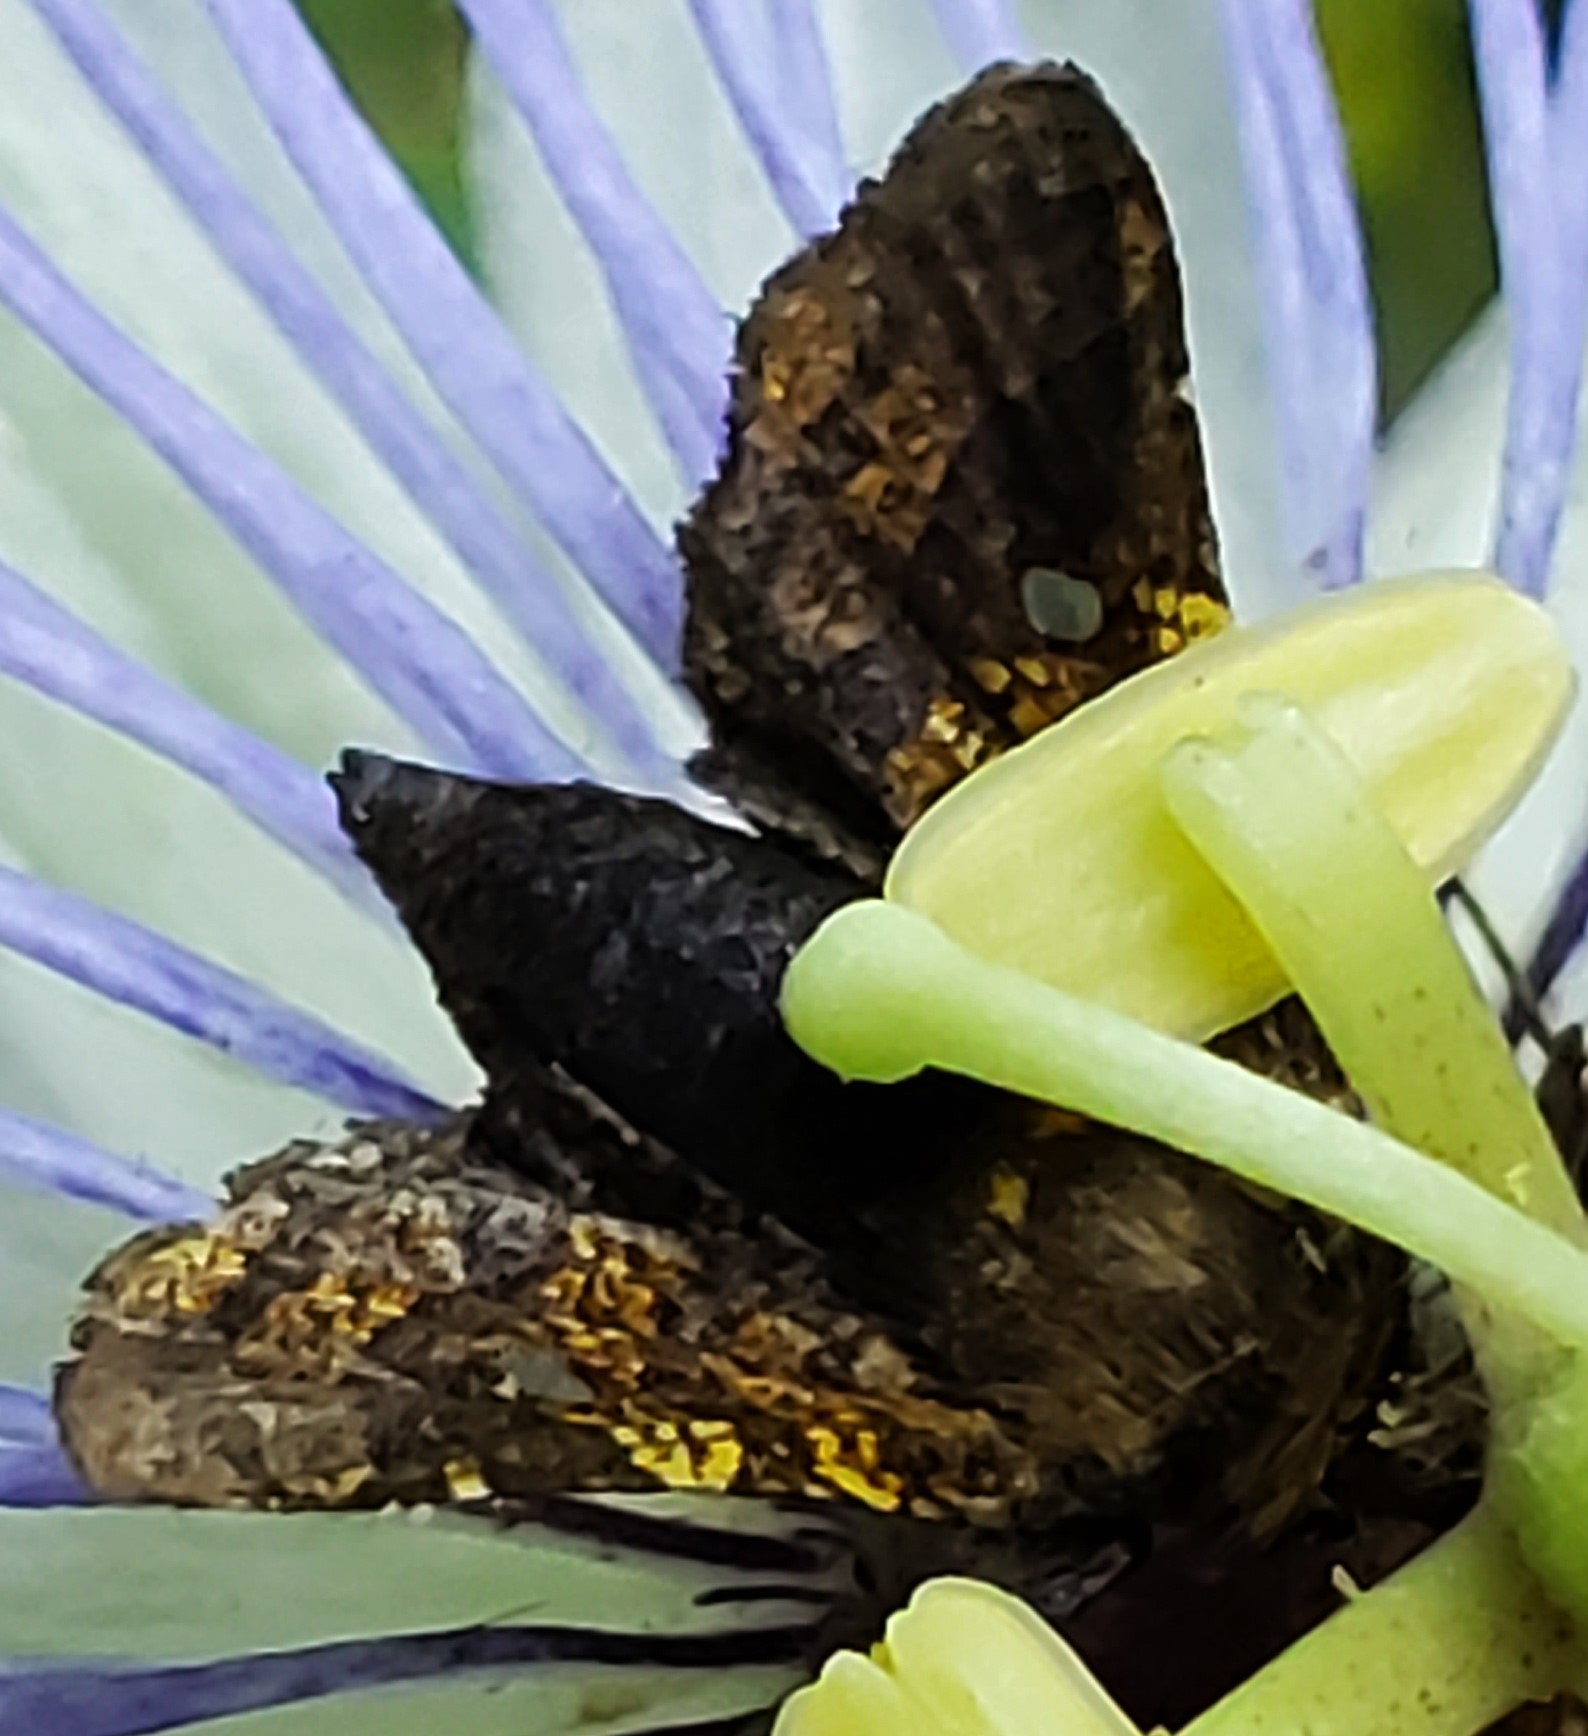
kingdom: Animalia
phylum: Arthropoda
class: Insecta
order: Lepidoptera
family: Thyrididae
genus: Dysodia
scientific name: Dysodia granulata
